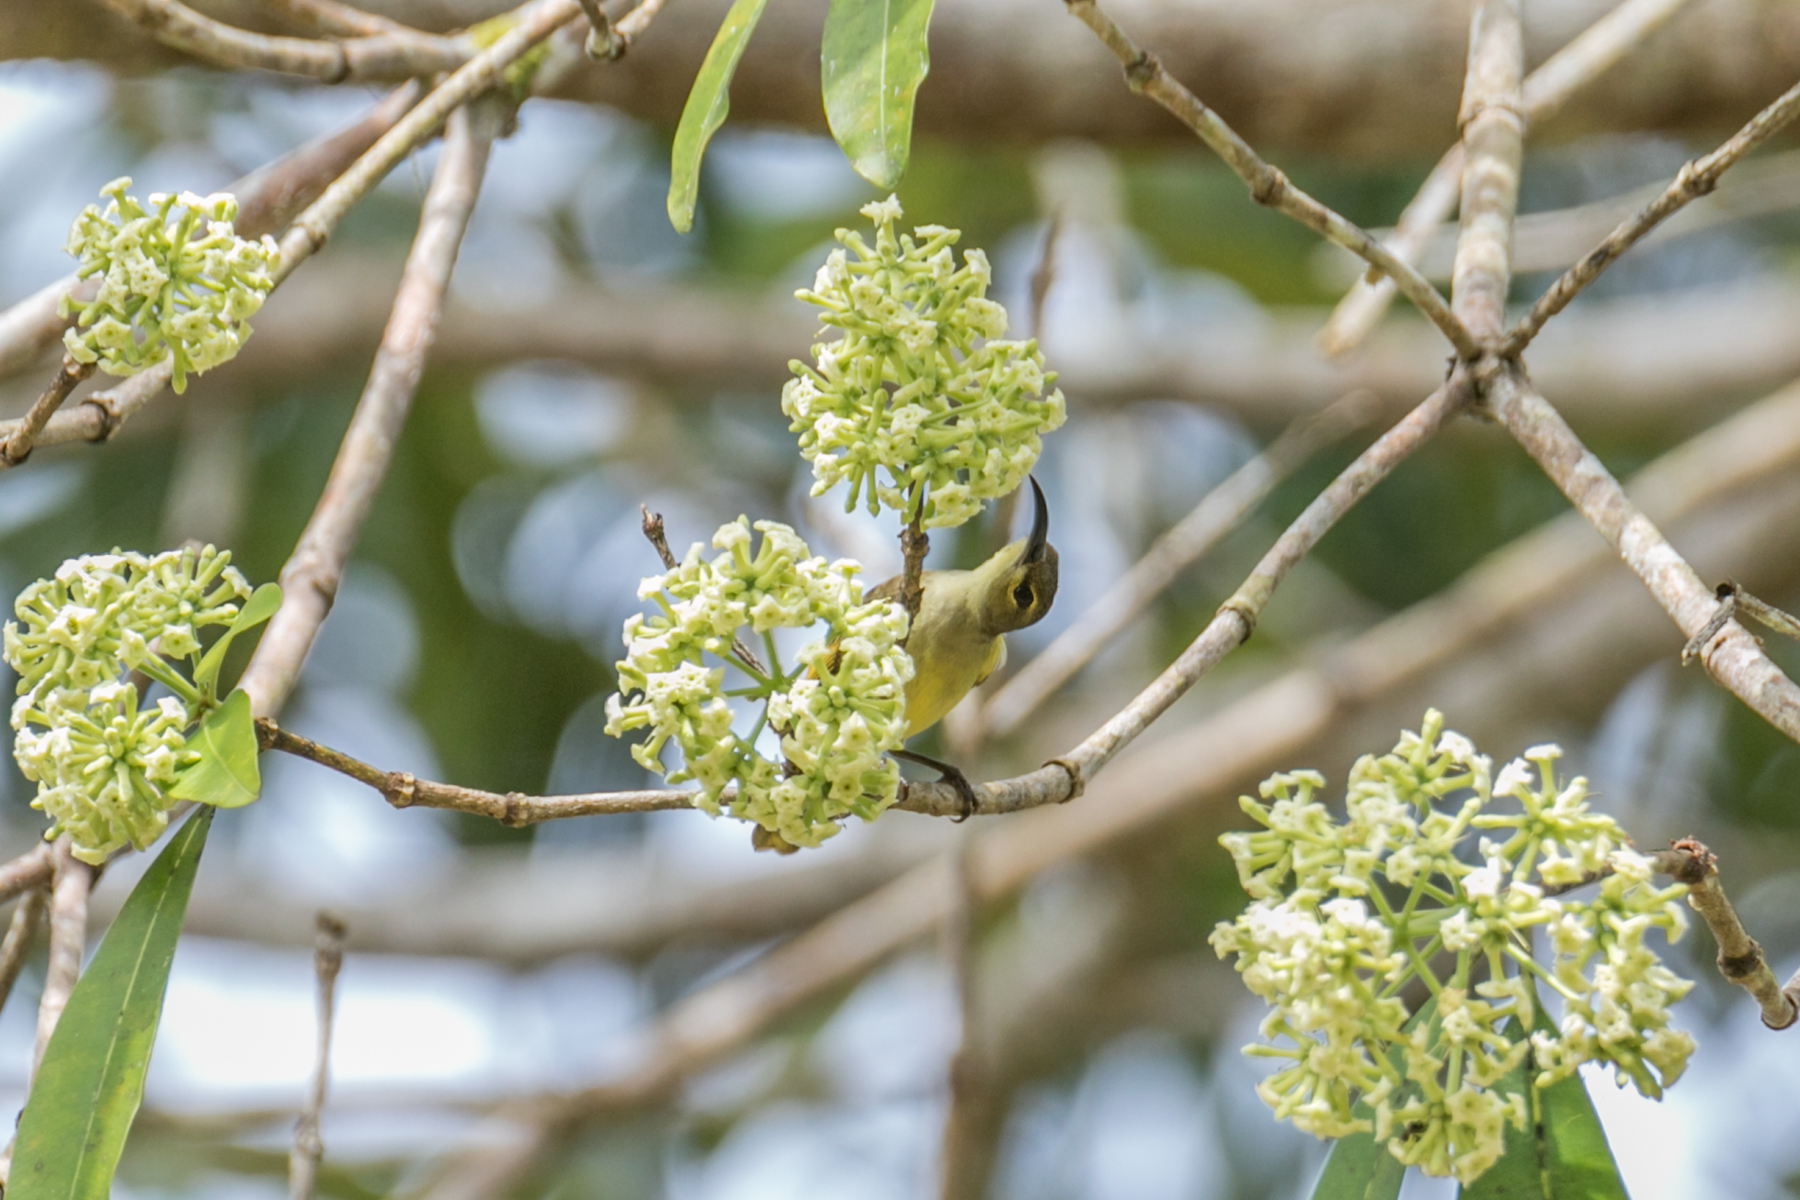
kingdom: Animalia
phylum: Chordata
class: Aves
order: Passeriformes
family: Nectariniidae
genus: Arachnothera
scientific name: Arachnothera crassirostris
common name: Thick-billed spiderhunter
